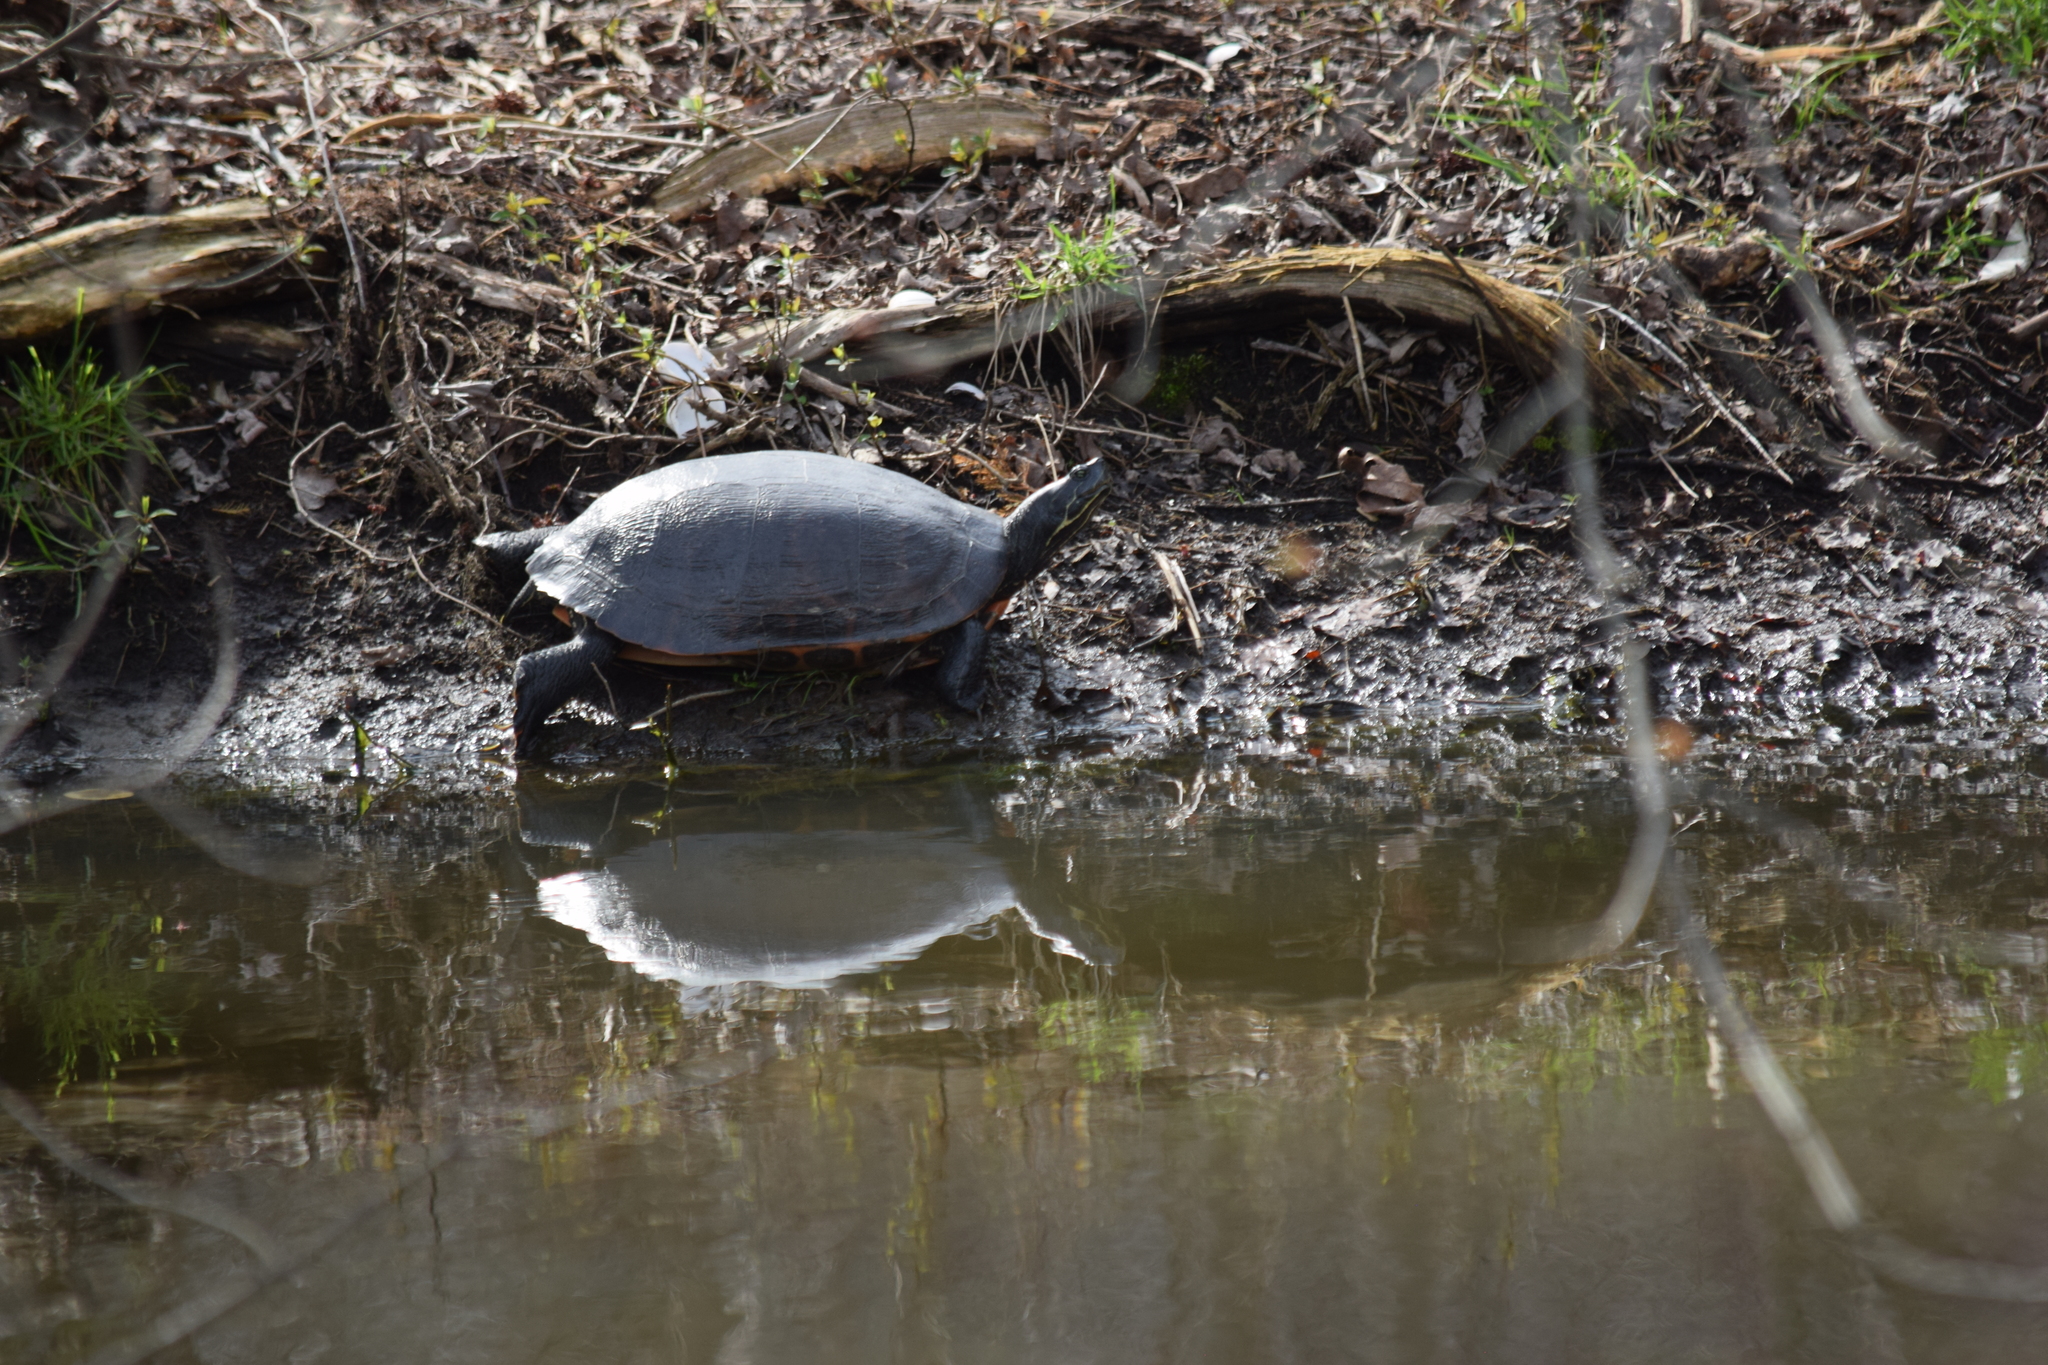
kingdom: Animalia
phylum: Chordata
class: Testudines
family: Emydidae
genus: Pseudemys
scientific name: Pseudemys rubriventris
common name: American red-bellied turtle
